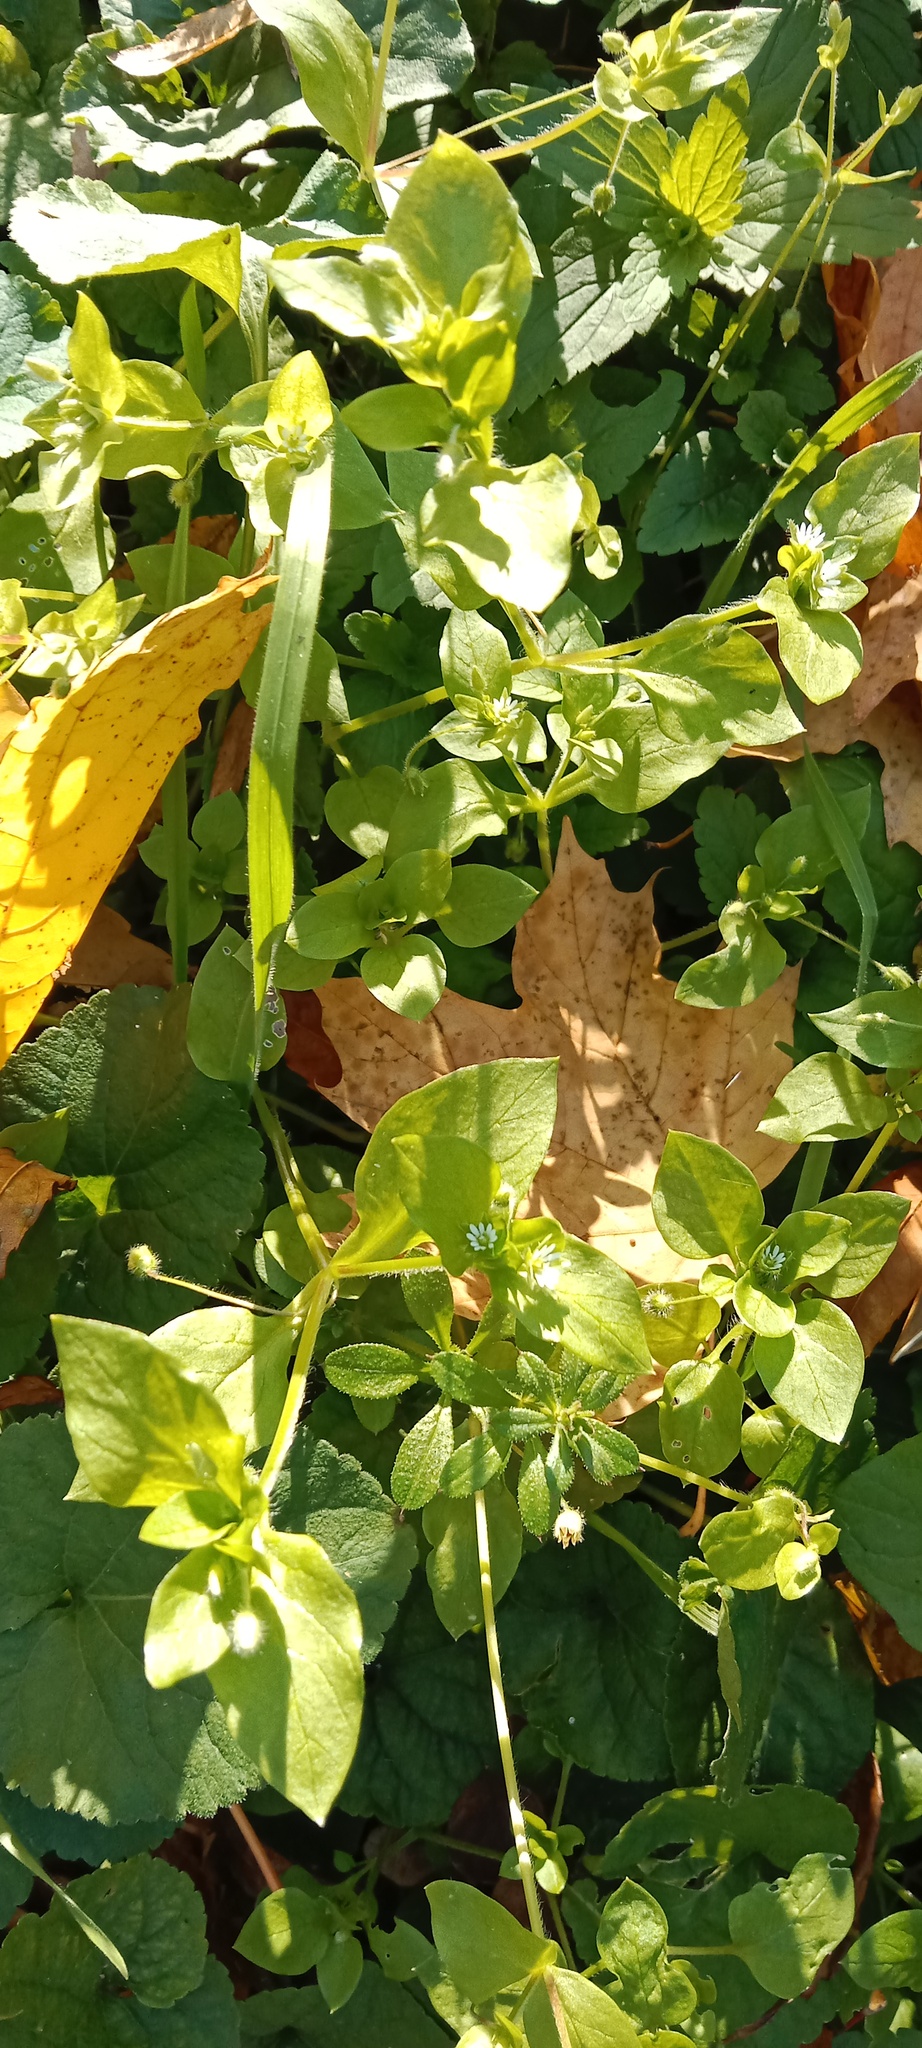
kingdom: Plantae
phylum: Tracheophyta
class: Magnoliopsida
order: Caryophyllales
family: Caryophyllaceae
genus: Stellaria
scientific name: Stellaria media
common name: Common chickweed
